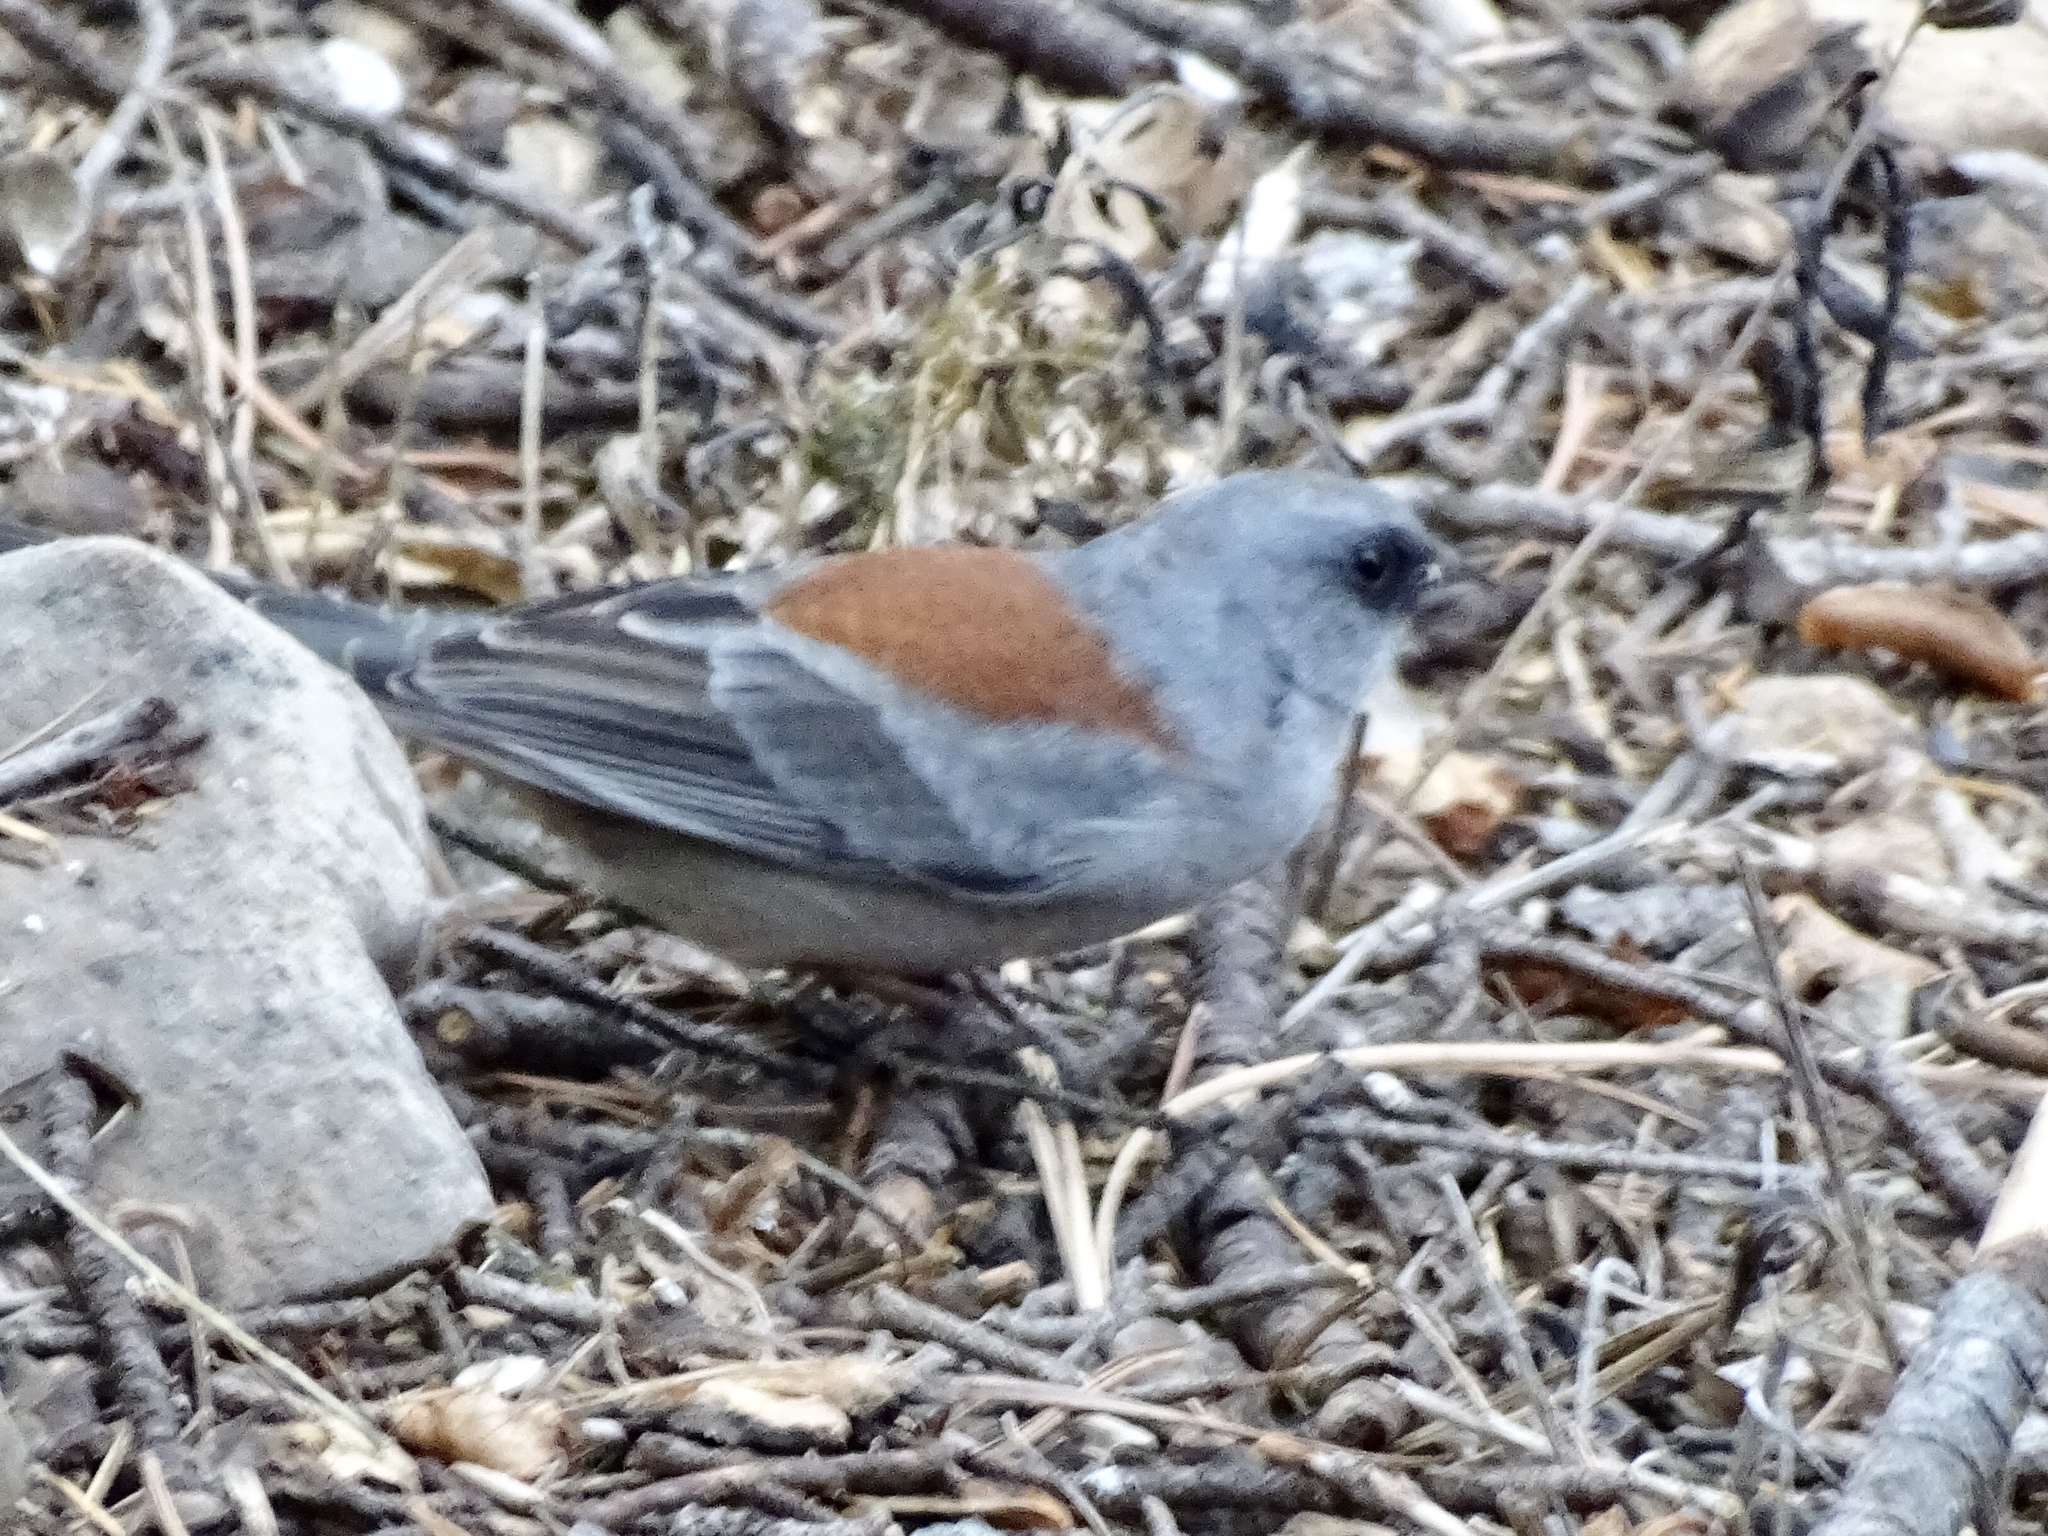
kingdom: Animalia
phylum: Chordata
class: Aves
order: Passeriformes
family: Passerellidae
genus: Junco
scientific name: Junco hyemalis
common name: Dark-eyed junco
